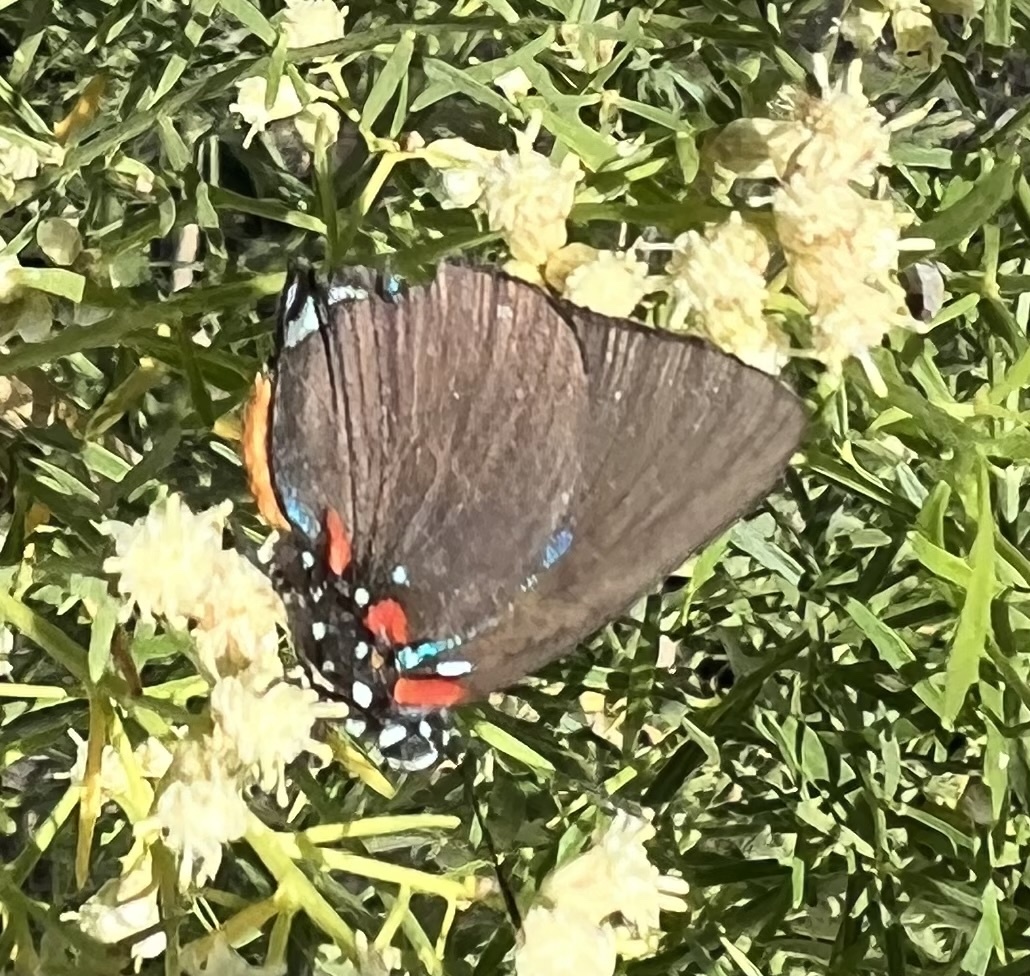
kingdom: Animalia
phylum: Arthropoda
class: Insecta
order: Lepidoptera
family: Lycaenidae
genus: Atlides
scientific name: Atlides halesus
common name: Great purple hairstreak
